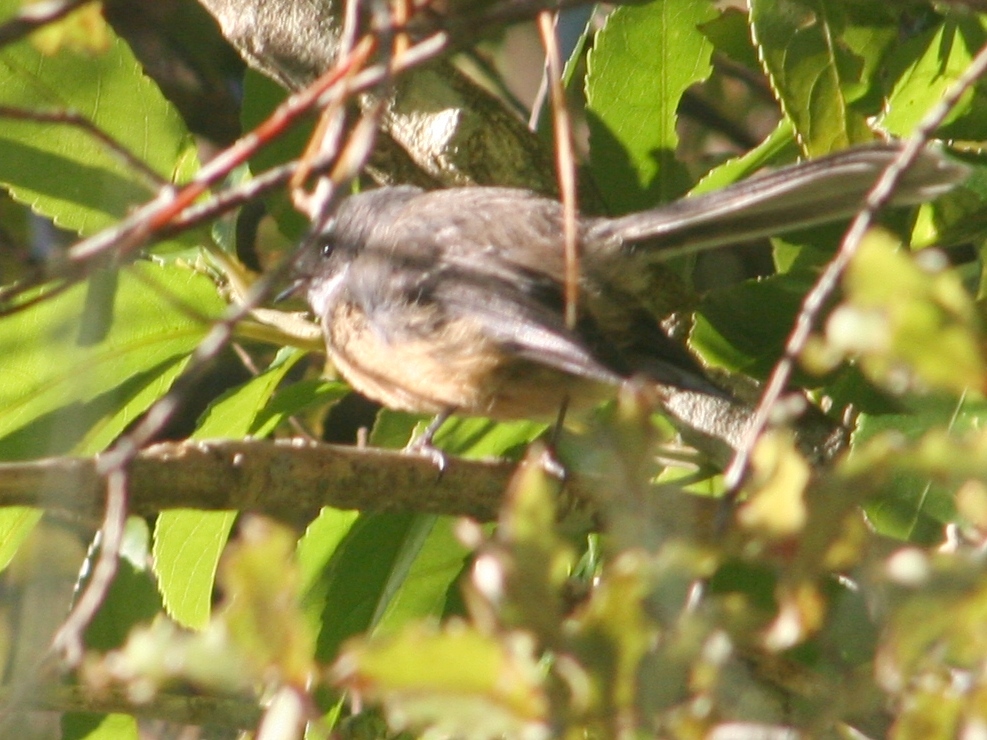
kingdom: Animalia
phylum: Chordata
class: Aves
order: Passeriformes
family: Rhipiduridae
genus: Rhipidura
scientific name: Rhipidura fuliginosa
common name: New zealand fantail
